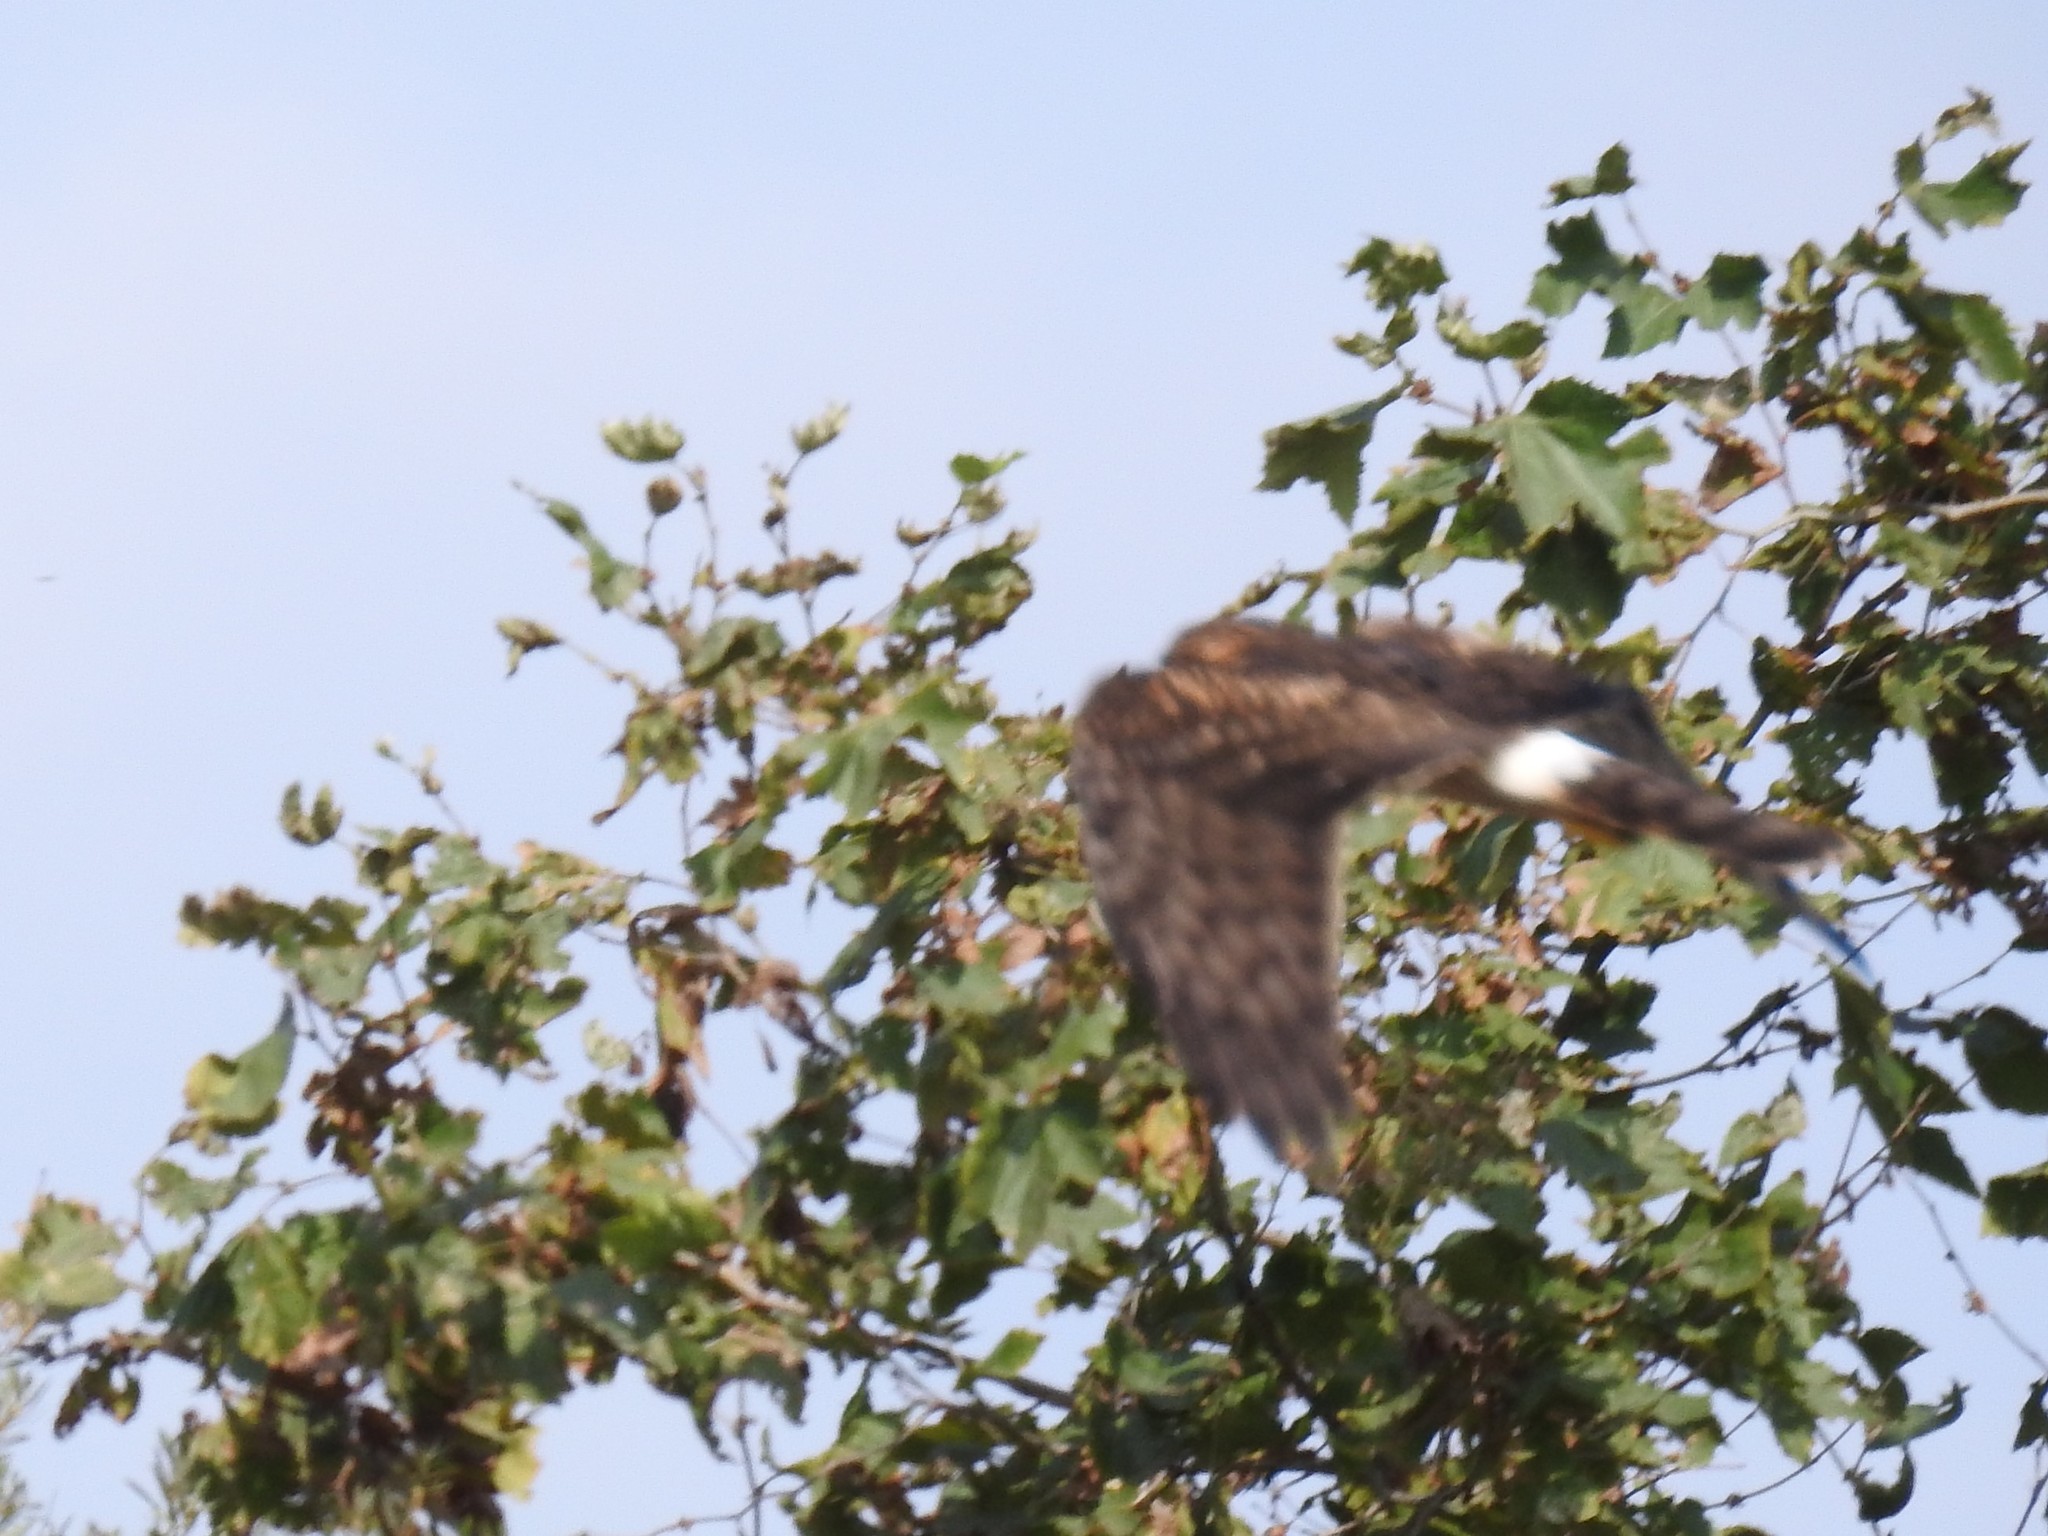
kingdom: Animalia
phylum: Chordata
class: Aves
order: Accipitriformes
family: Accipitridae
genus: Circus
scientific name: Circus cyaneus
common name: Hen harrier
